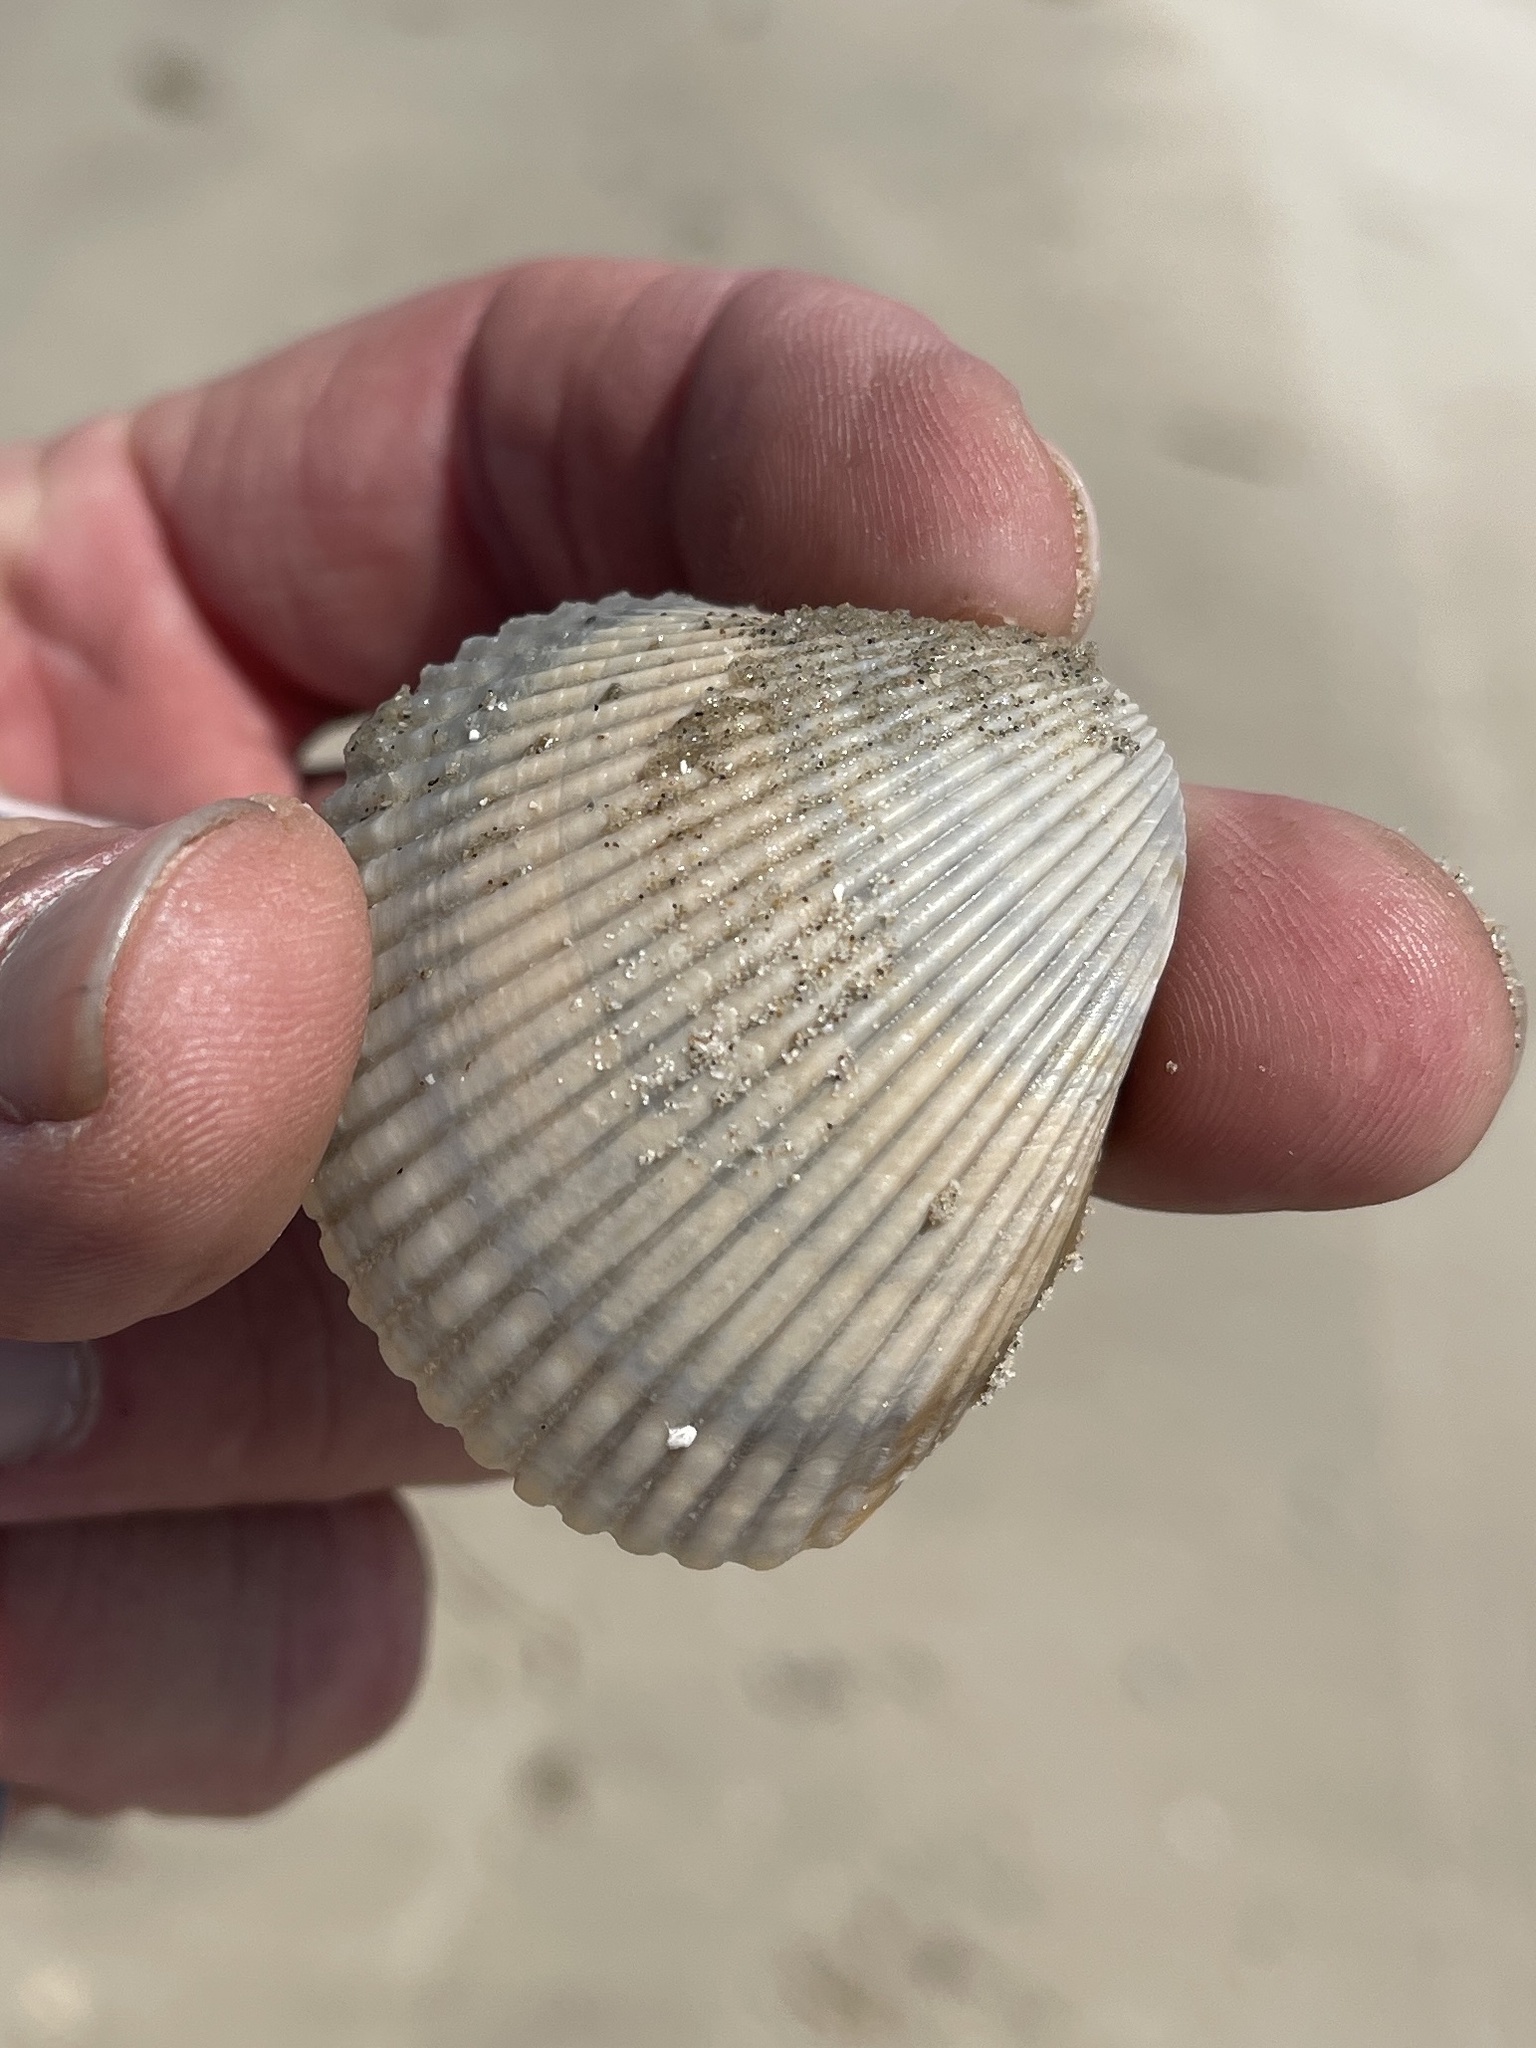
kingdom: Animalia
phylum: Mollusca
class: Bivalvia
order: Cardiida
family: Cardiidae
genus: Dinocardium
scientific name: Dinocardium robustum
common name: Atlantic giant cockle
